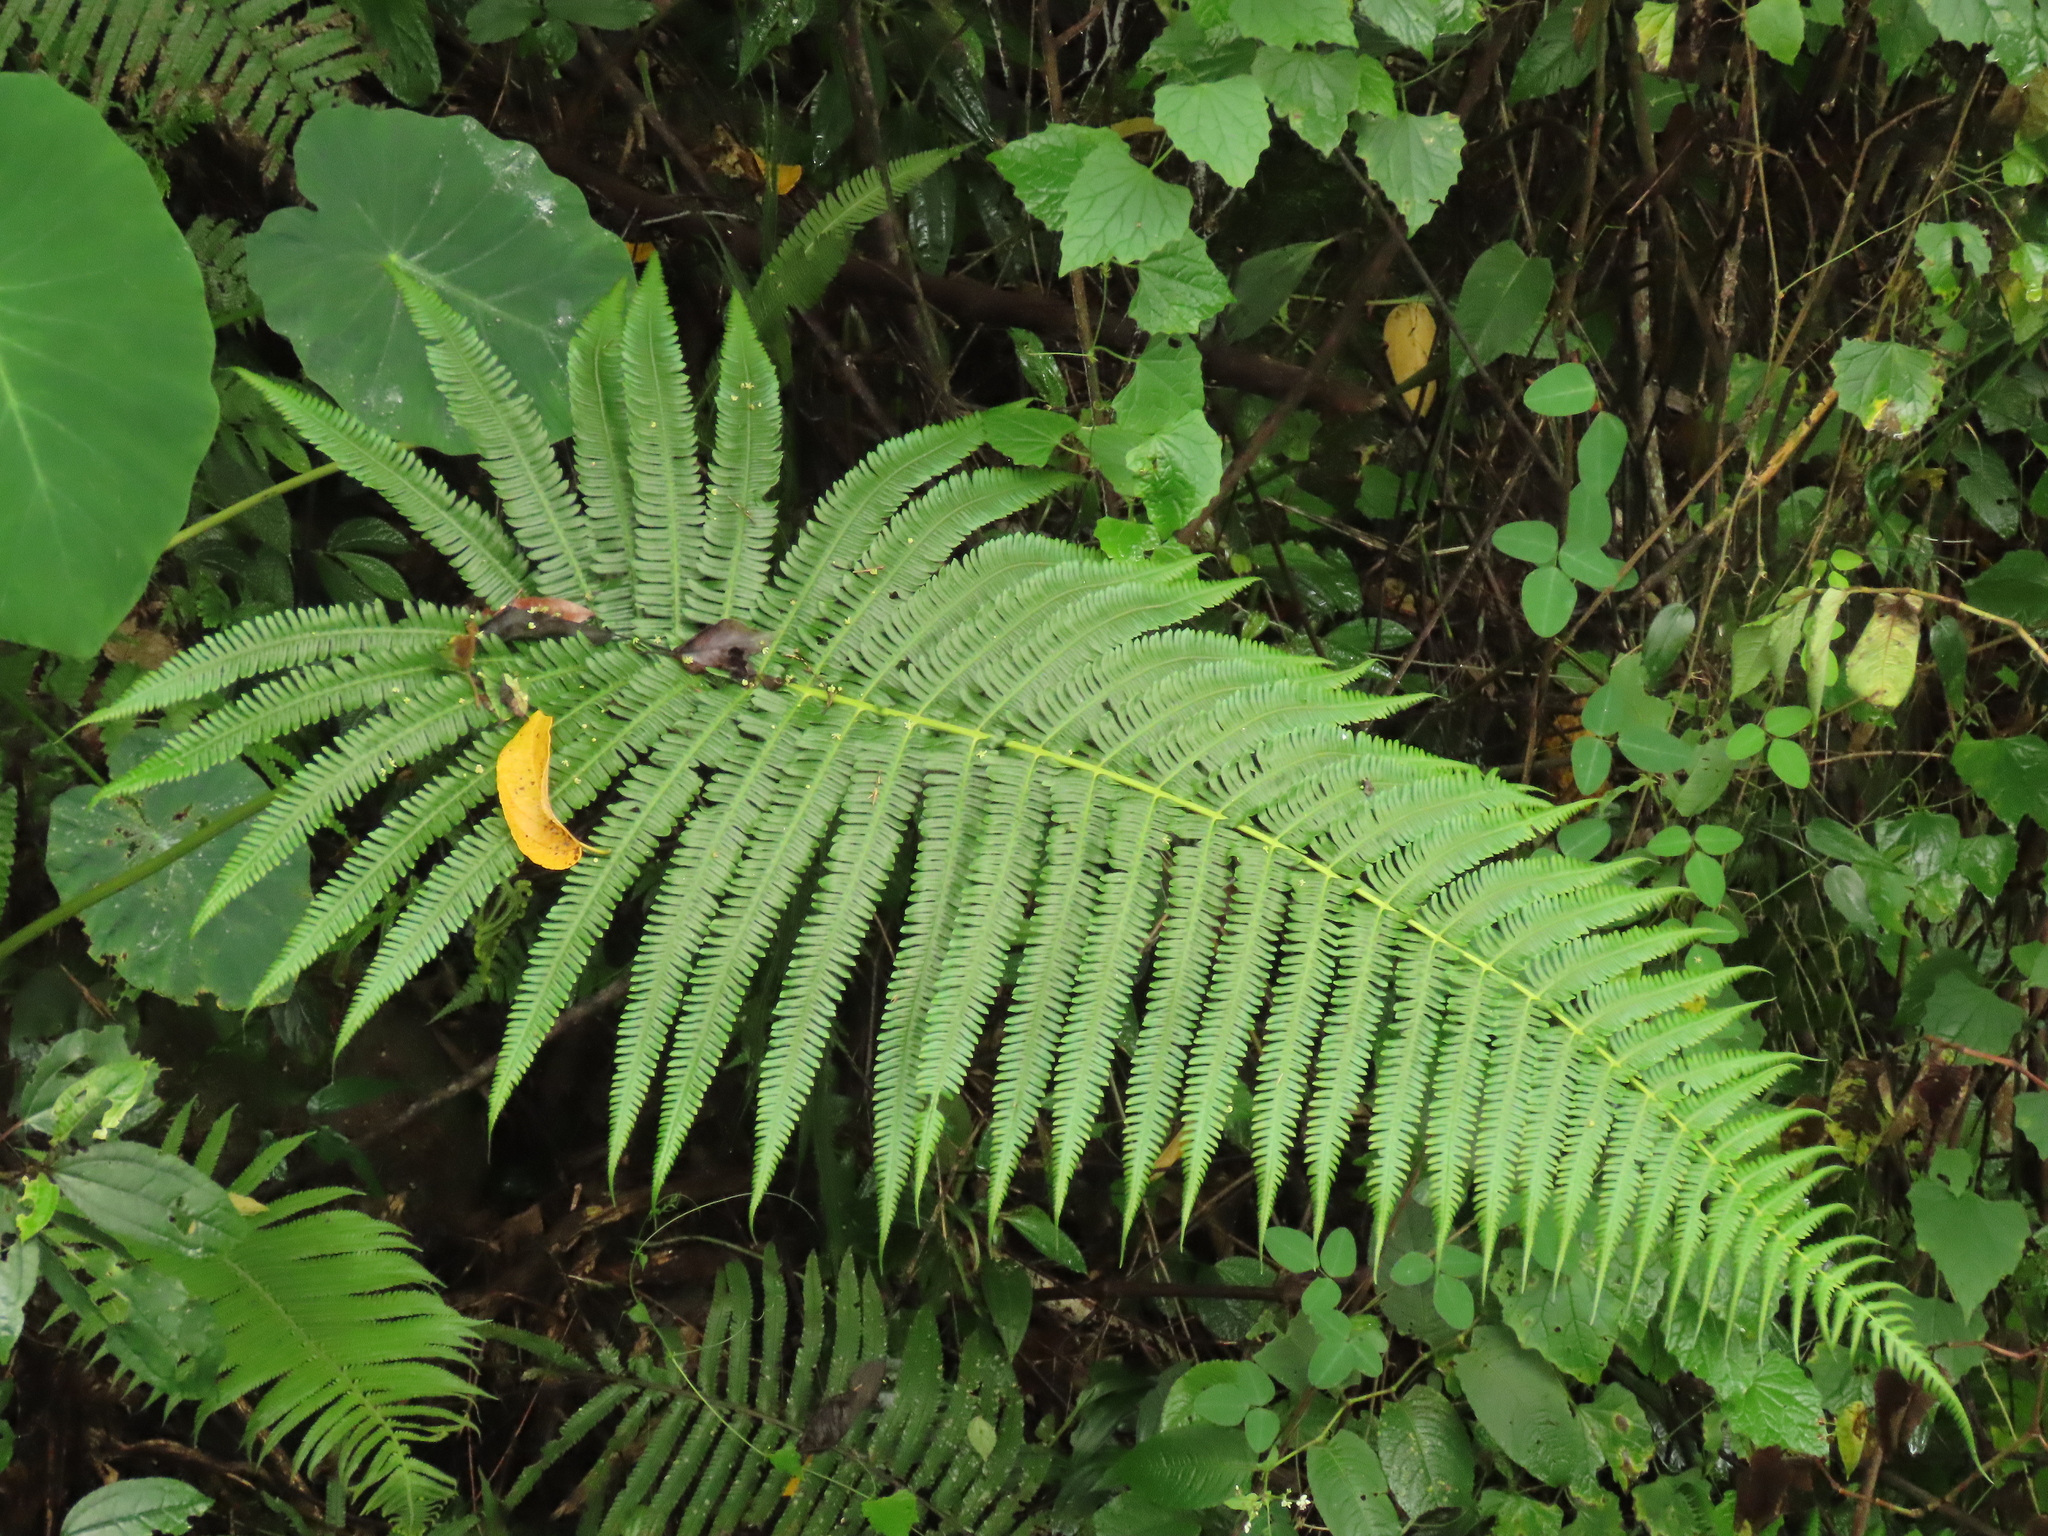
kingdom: Plantae
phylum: Tracheophyta
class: Polypodiopsida
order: Polypodiales
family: Thelypteridaceae
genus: Glaphyropteridopsis
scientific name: Glaphyropteridopsis erubescens
